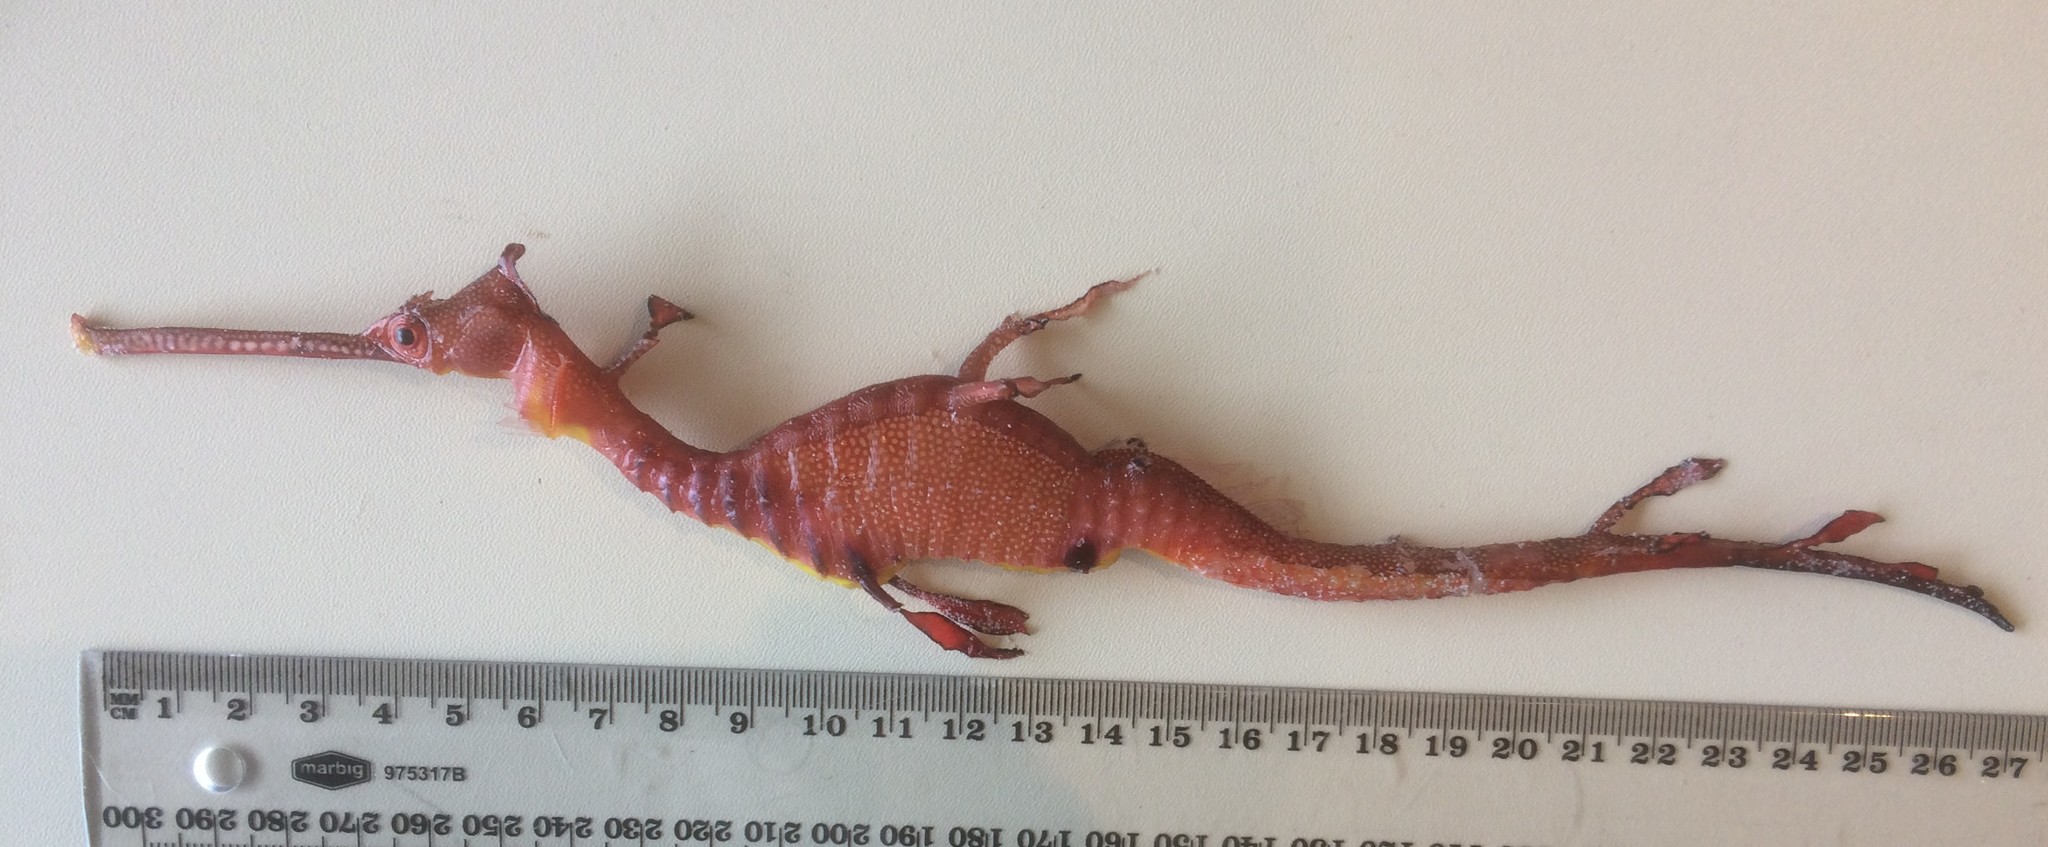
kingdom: Animalia
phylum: Chordata
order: Syngnathiformes
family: Syngnathidae
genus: Phyllopteryx
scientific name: Phyllopteryx taeniolatus
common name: Common seadragon
